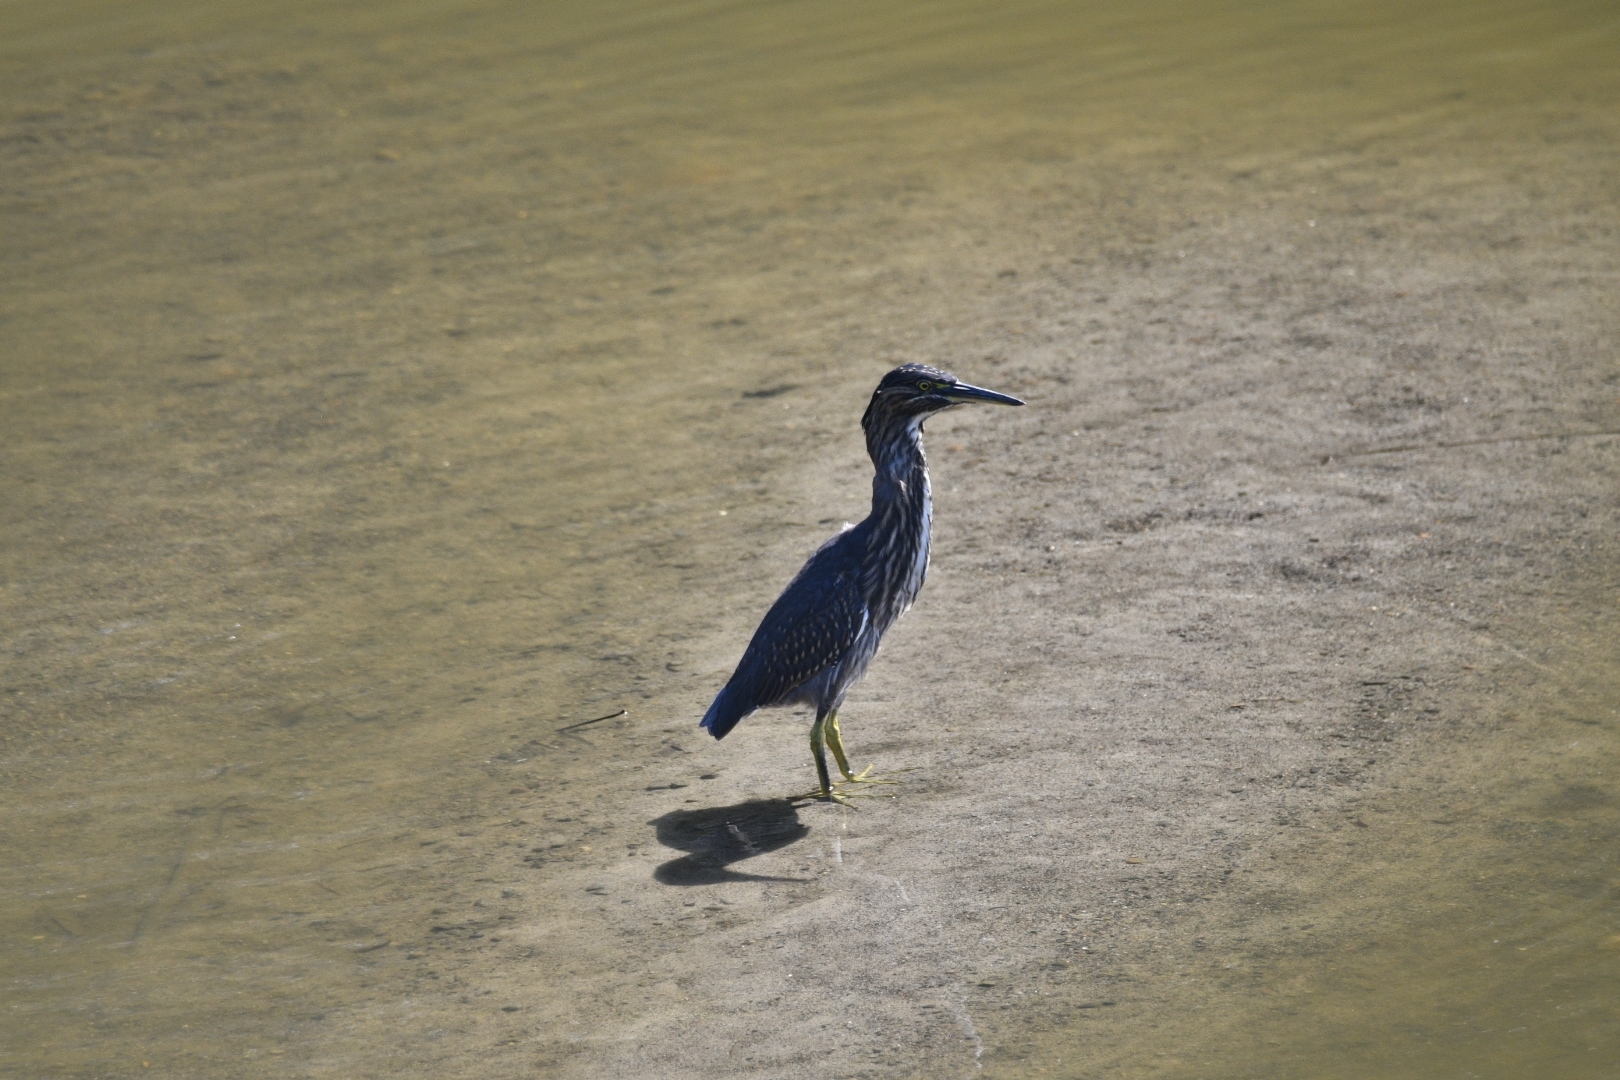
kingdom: Animalia
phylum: Chordata
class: Aves
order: Pelecaniformes
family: Ardeidae
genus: Butorides
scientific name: Butorides striata
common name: Striated heron
